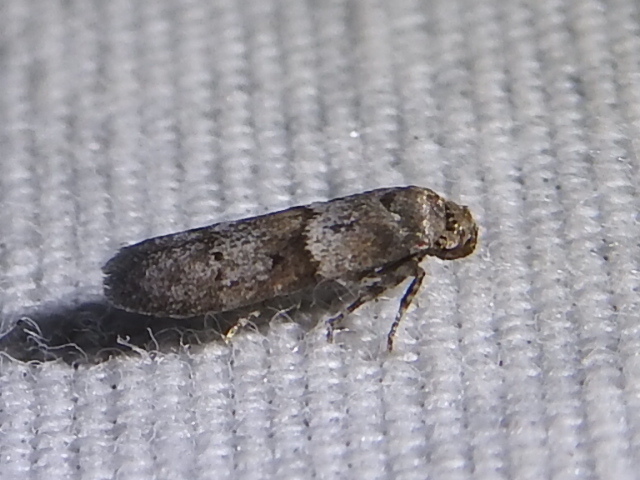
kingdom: Animalia
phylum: Arthropoda
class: Insecta
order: Lepidoptera
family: Blastobasidae
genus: Blastobasis
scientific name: Blastobasis glandulella
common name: Acorn moth
